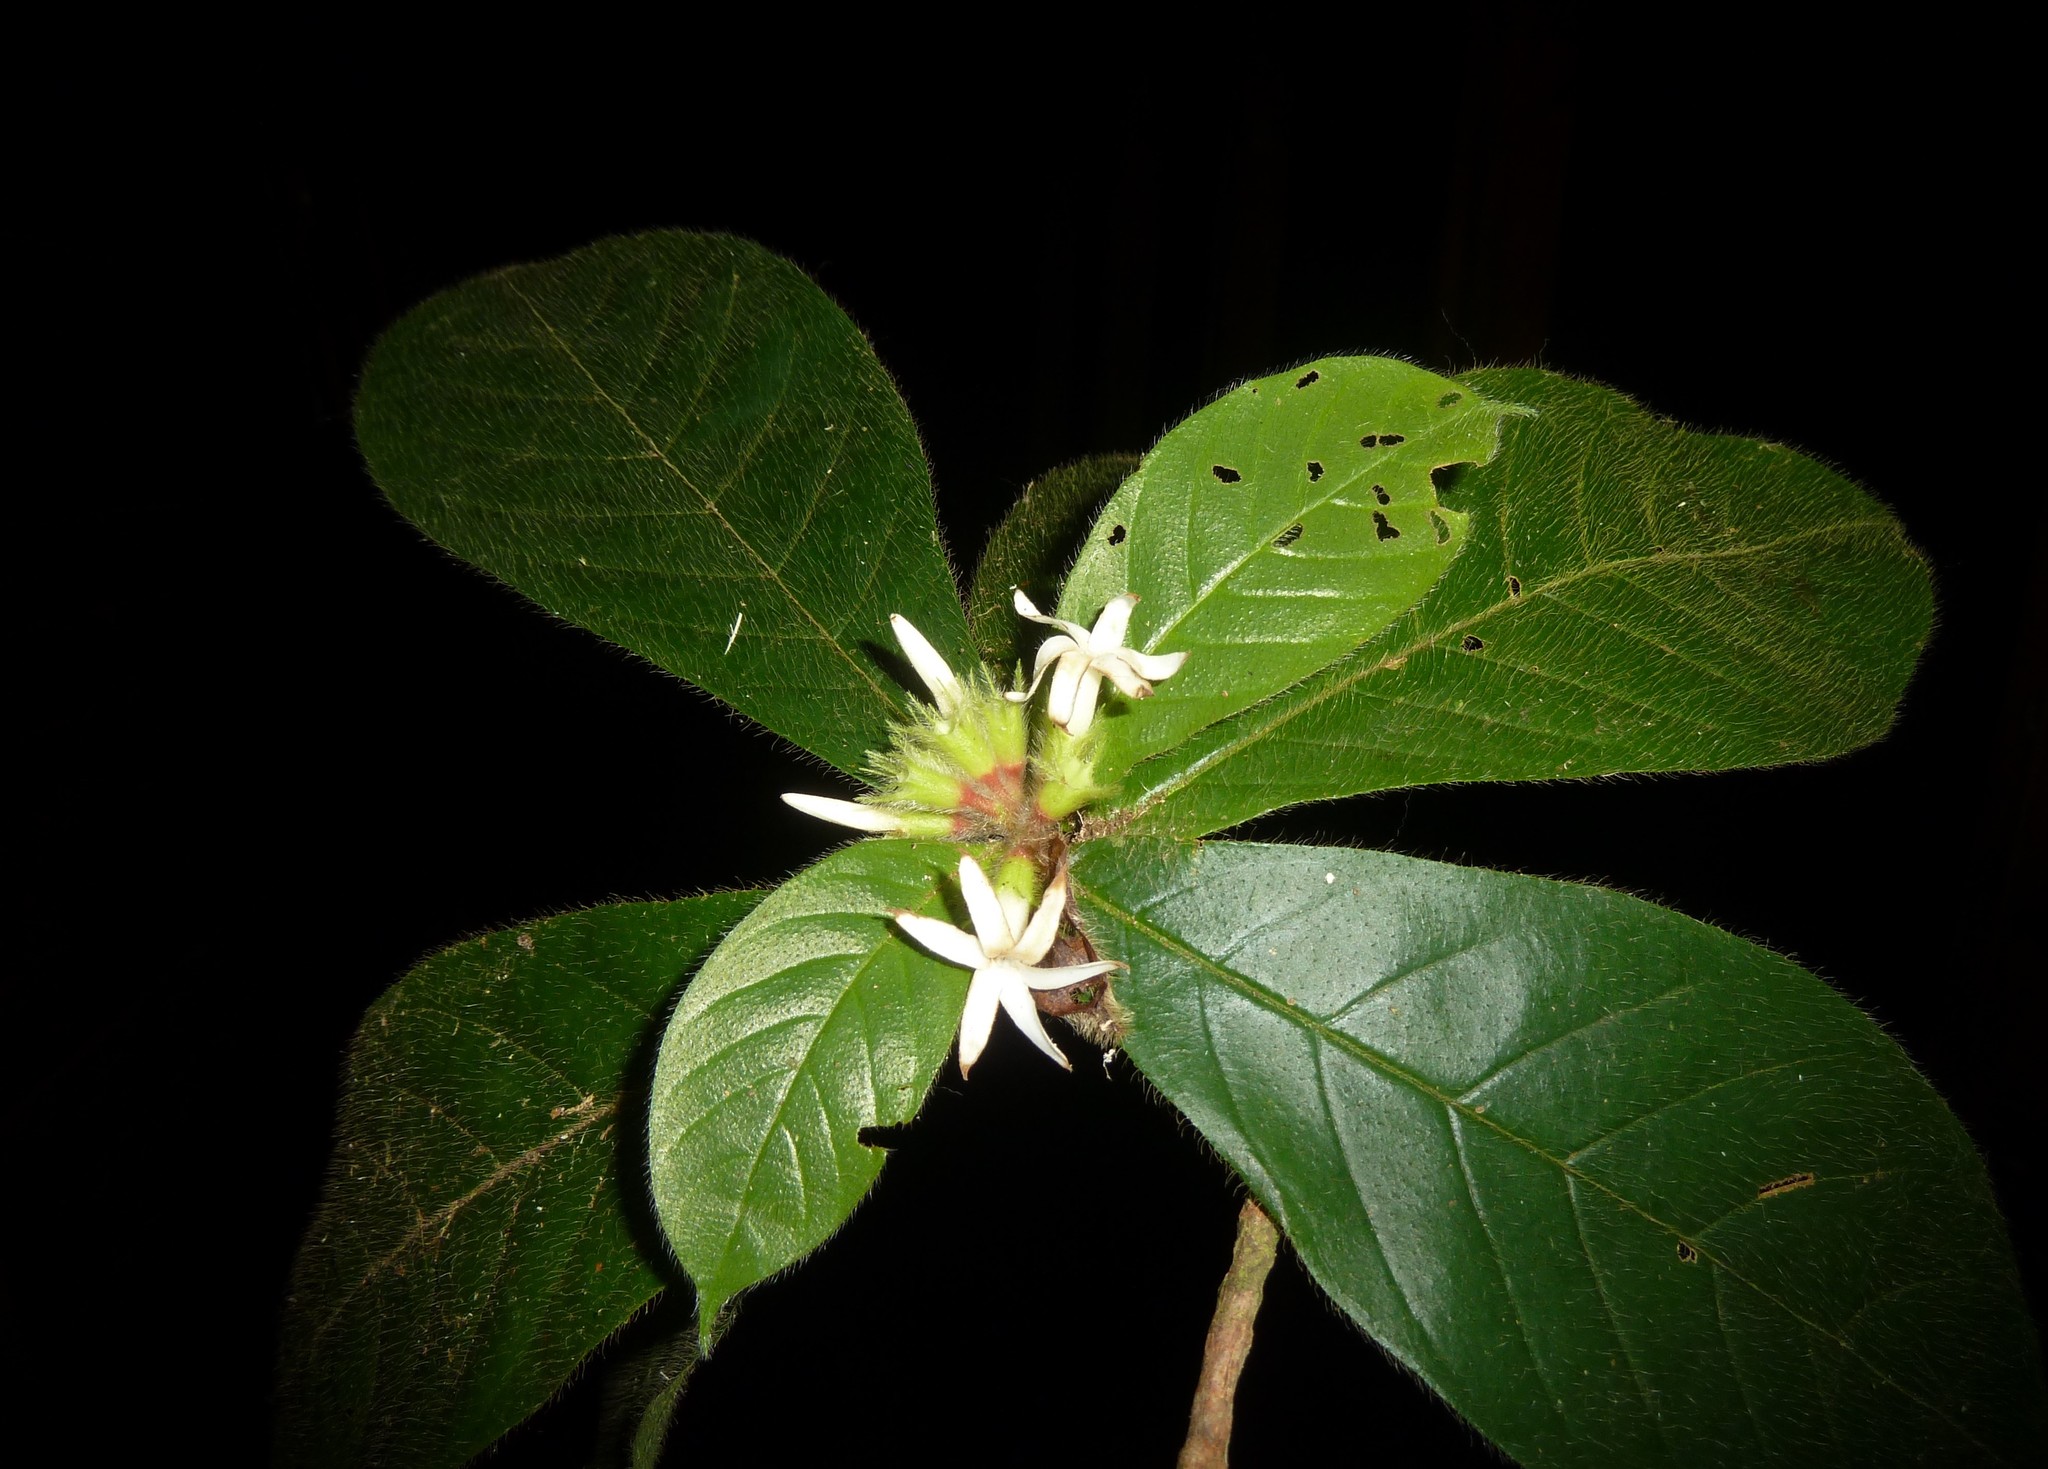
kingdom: Plantae
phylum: Tracheophyta
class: Magnoliopsida
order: Gentianales
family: Rubiaceae
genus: Duroia
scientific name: Duroia costaricensis
